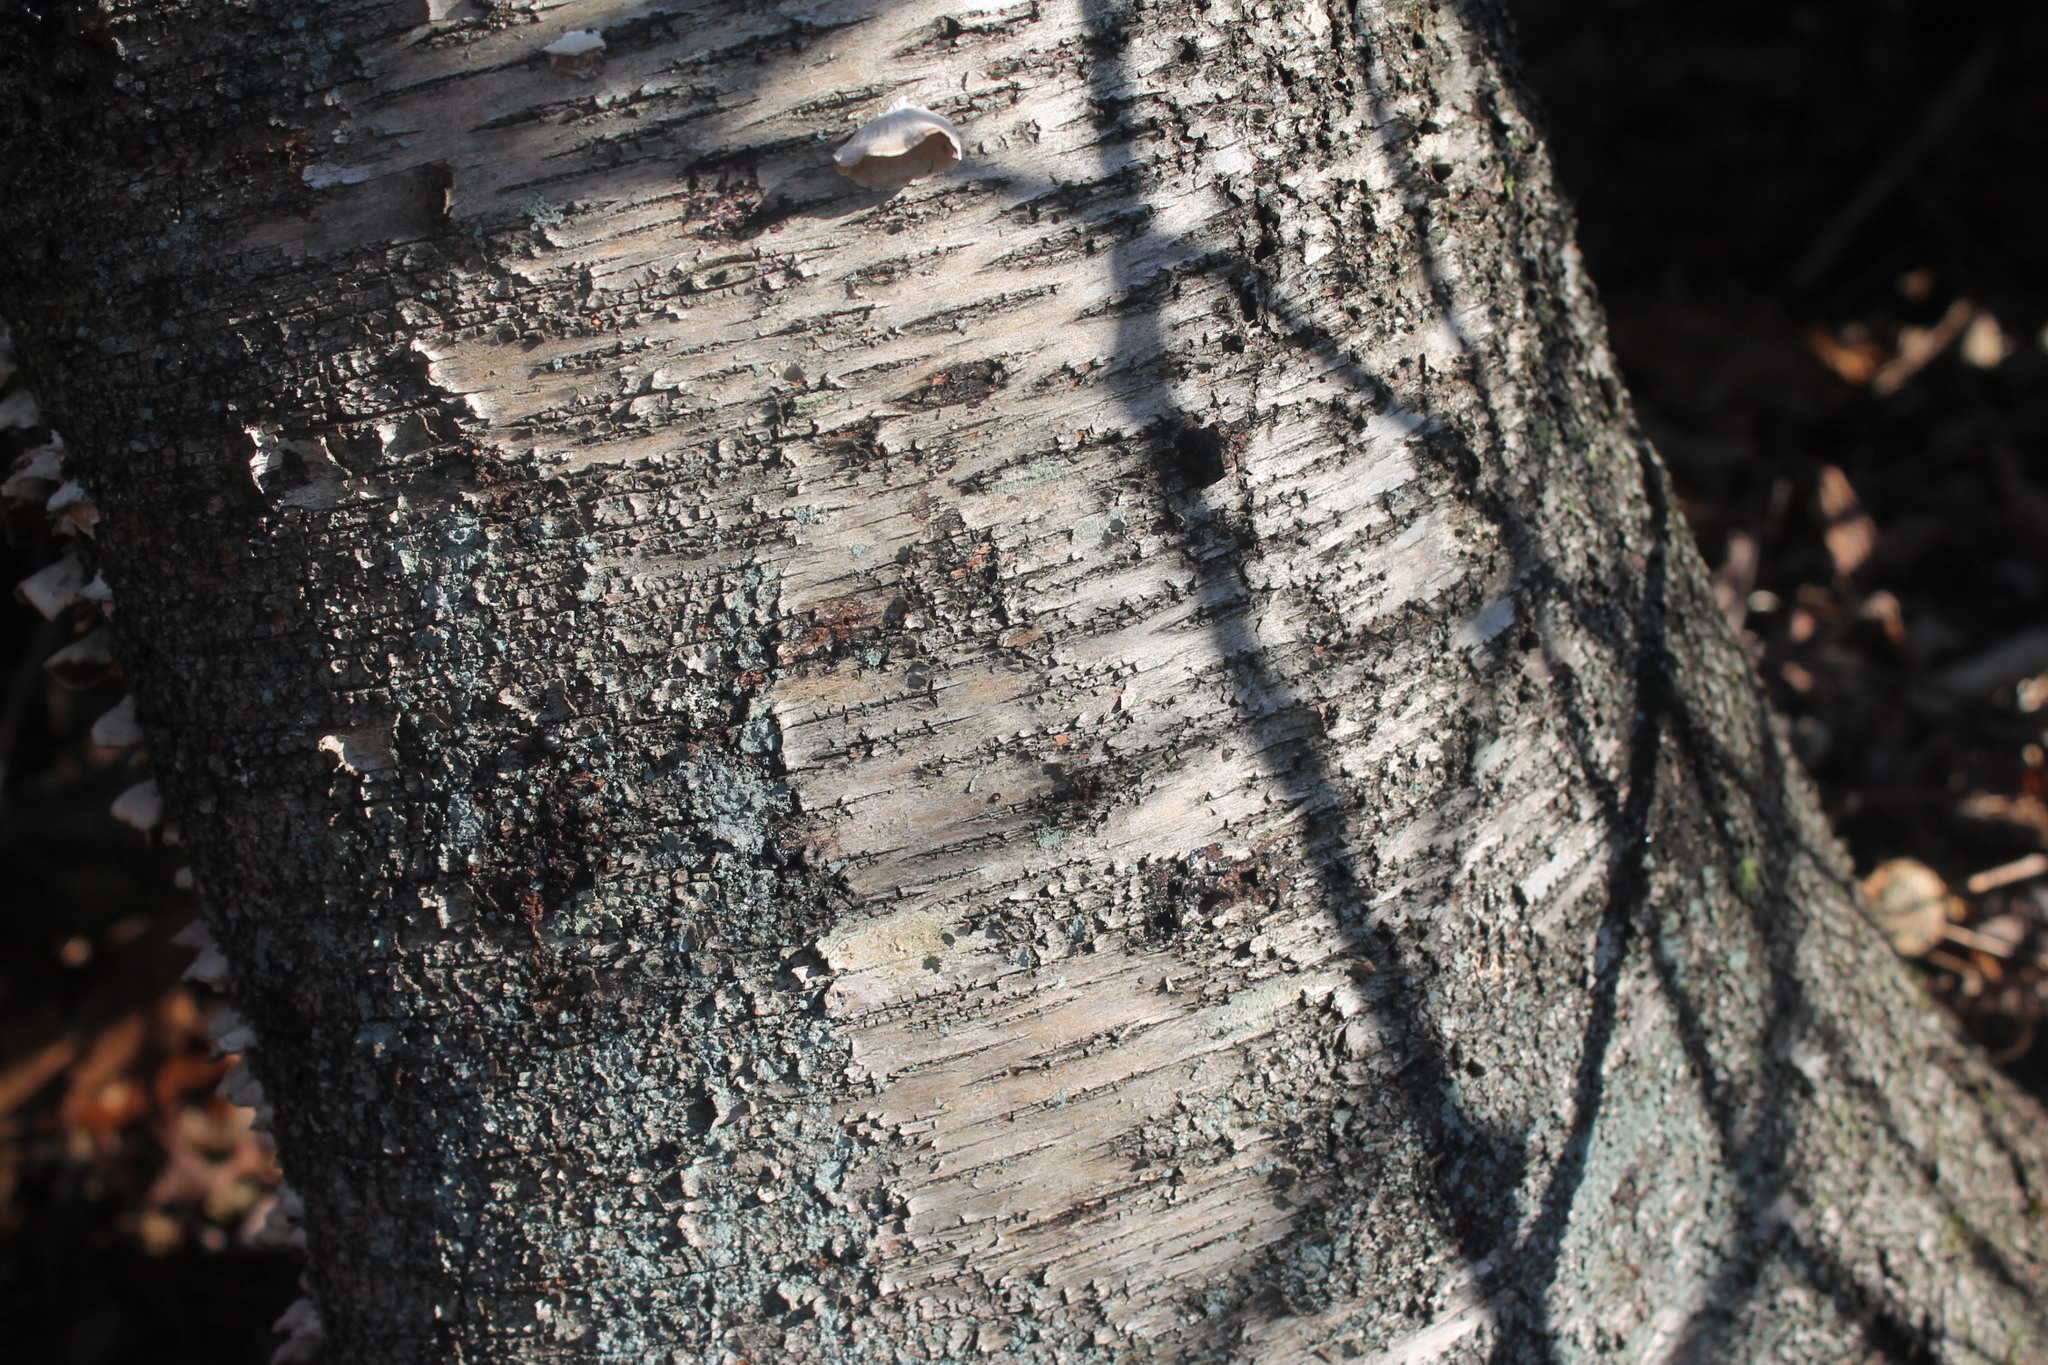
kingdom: Plantae
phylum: Tracheophyta
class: Magnoliopsida
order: Fagales
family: Betulaceae
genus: Betula
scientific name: Betula populifolia
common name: Fire birch
